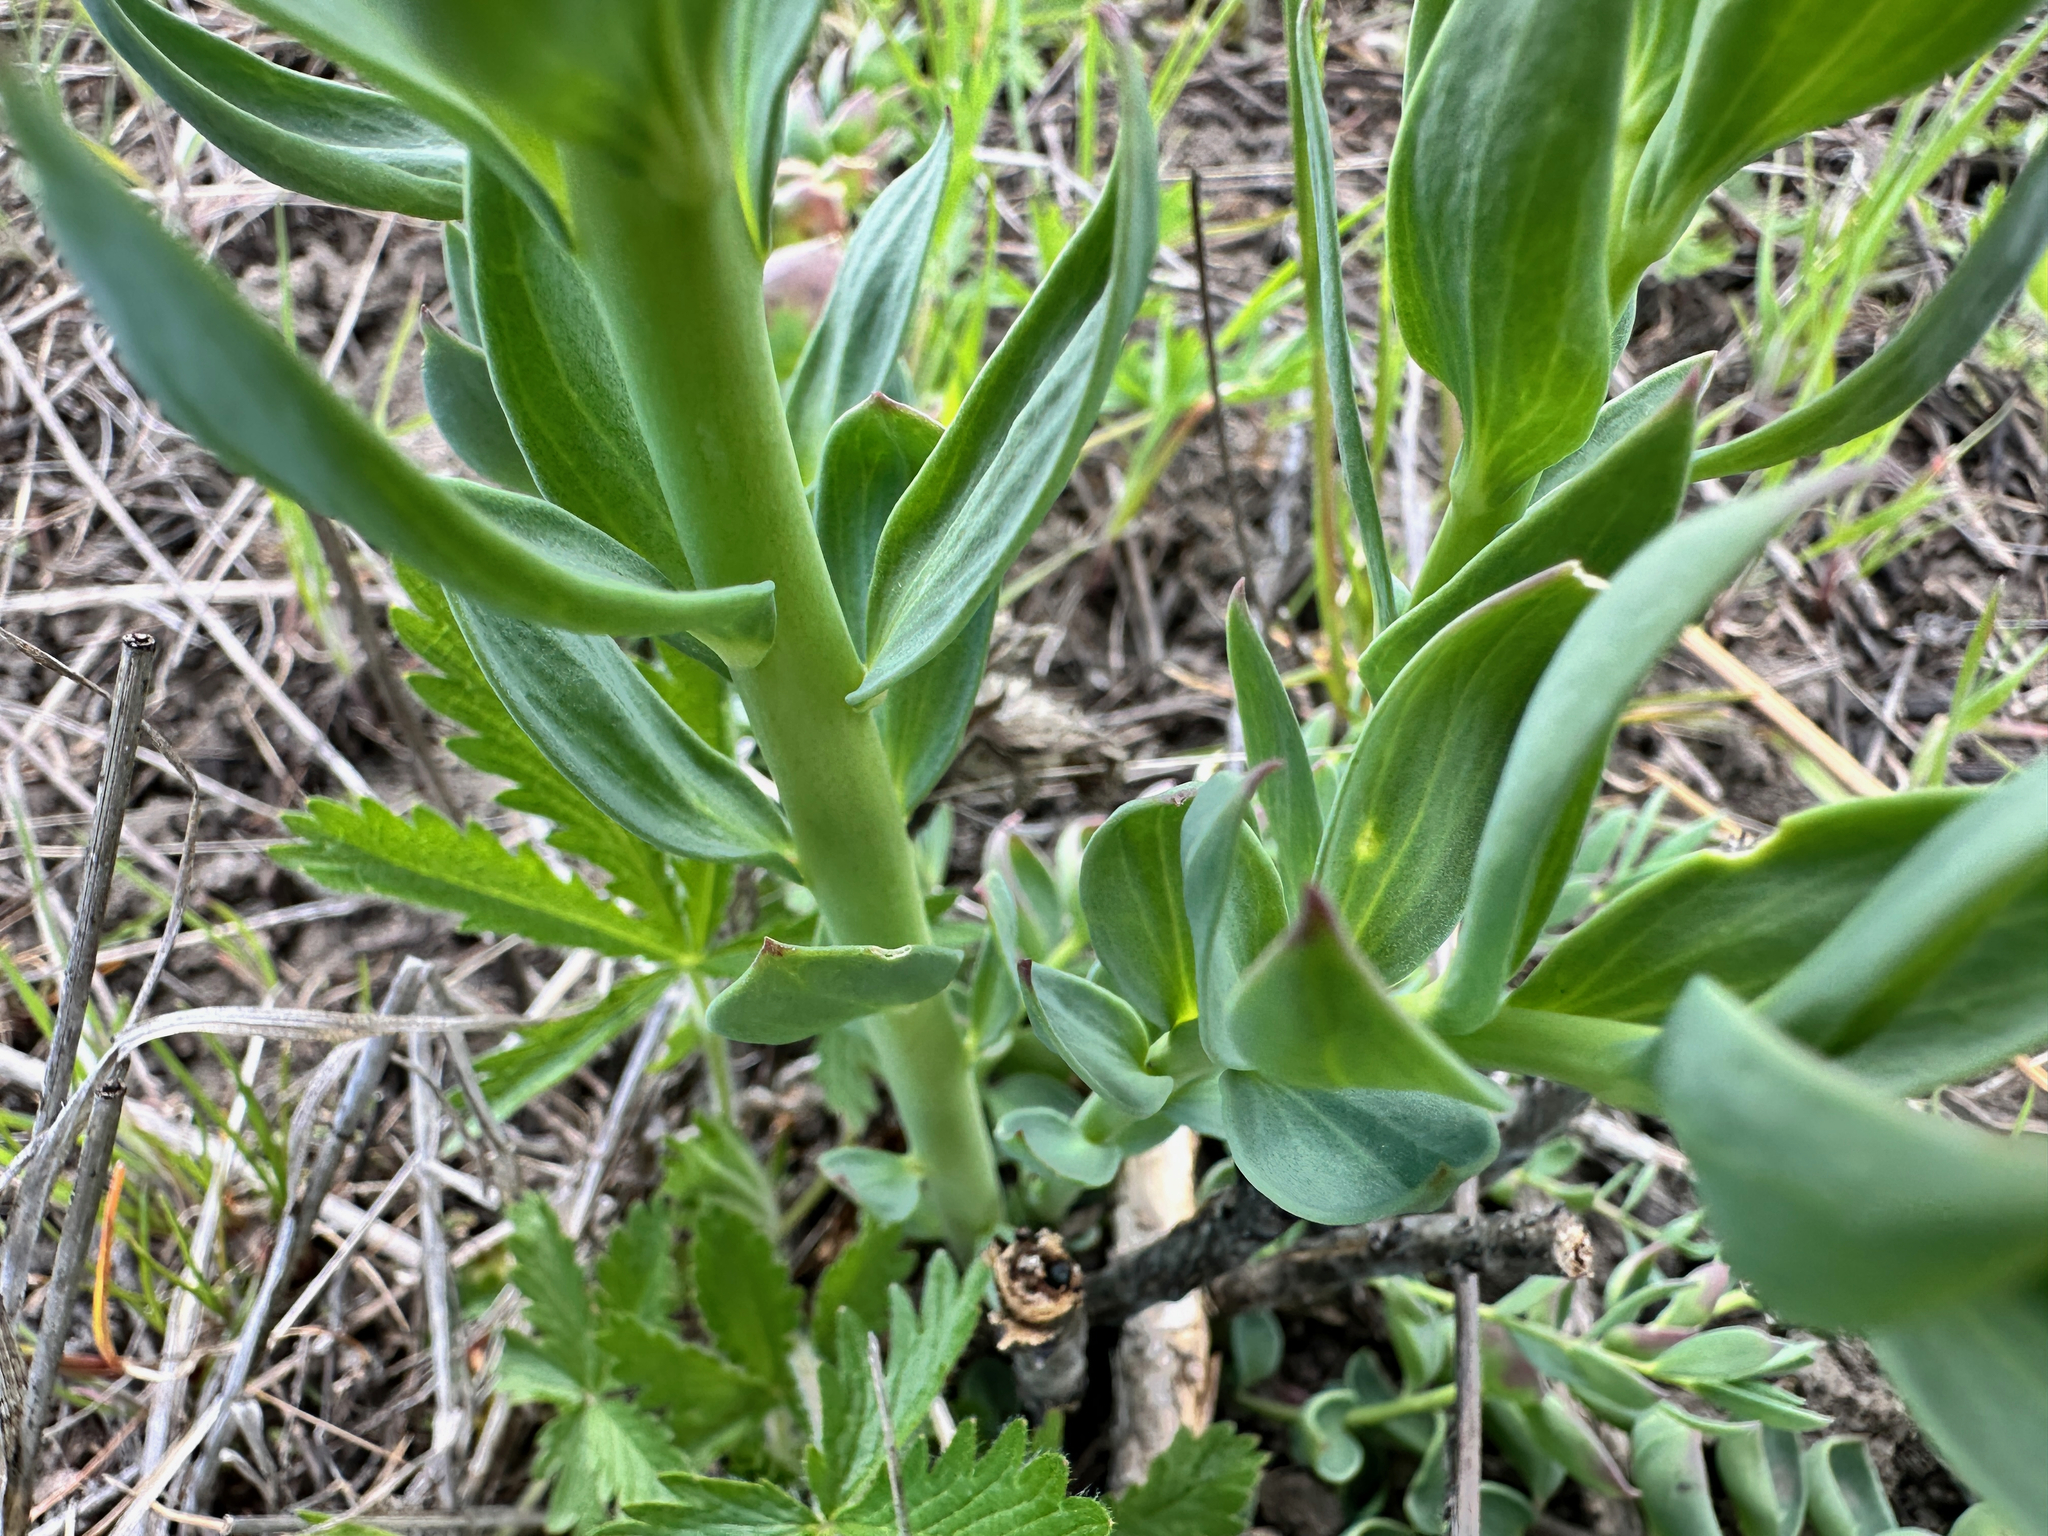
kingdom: Plantae
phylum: Tracheophyta
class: Magnoliopsida
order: Lamiales
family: Plantaginaceae
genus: Linaria
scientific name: Linaria dalmatica
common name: Dalmatian toadflax
